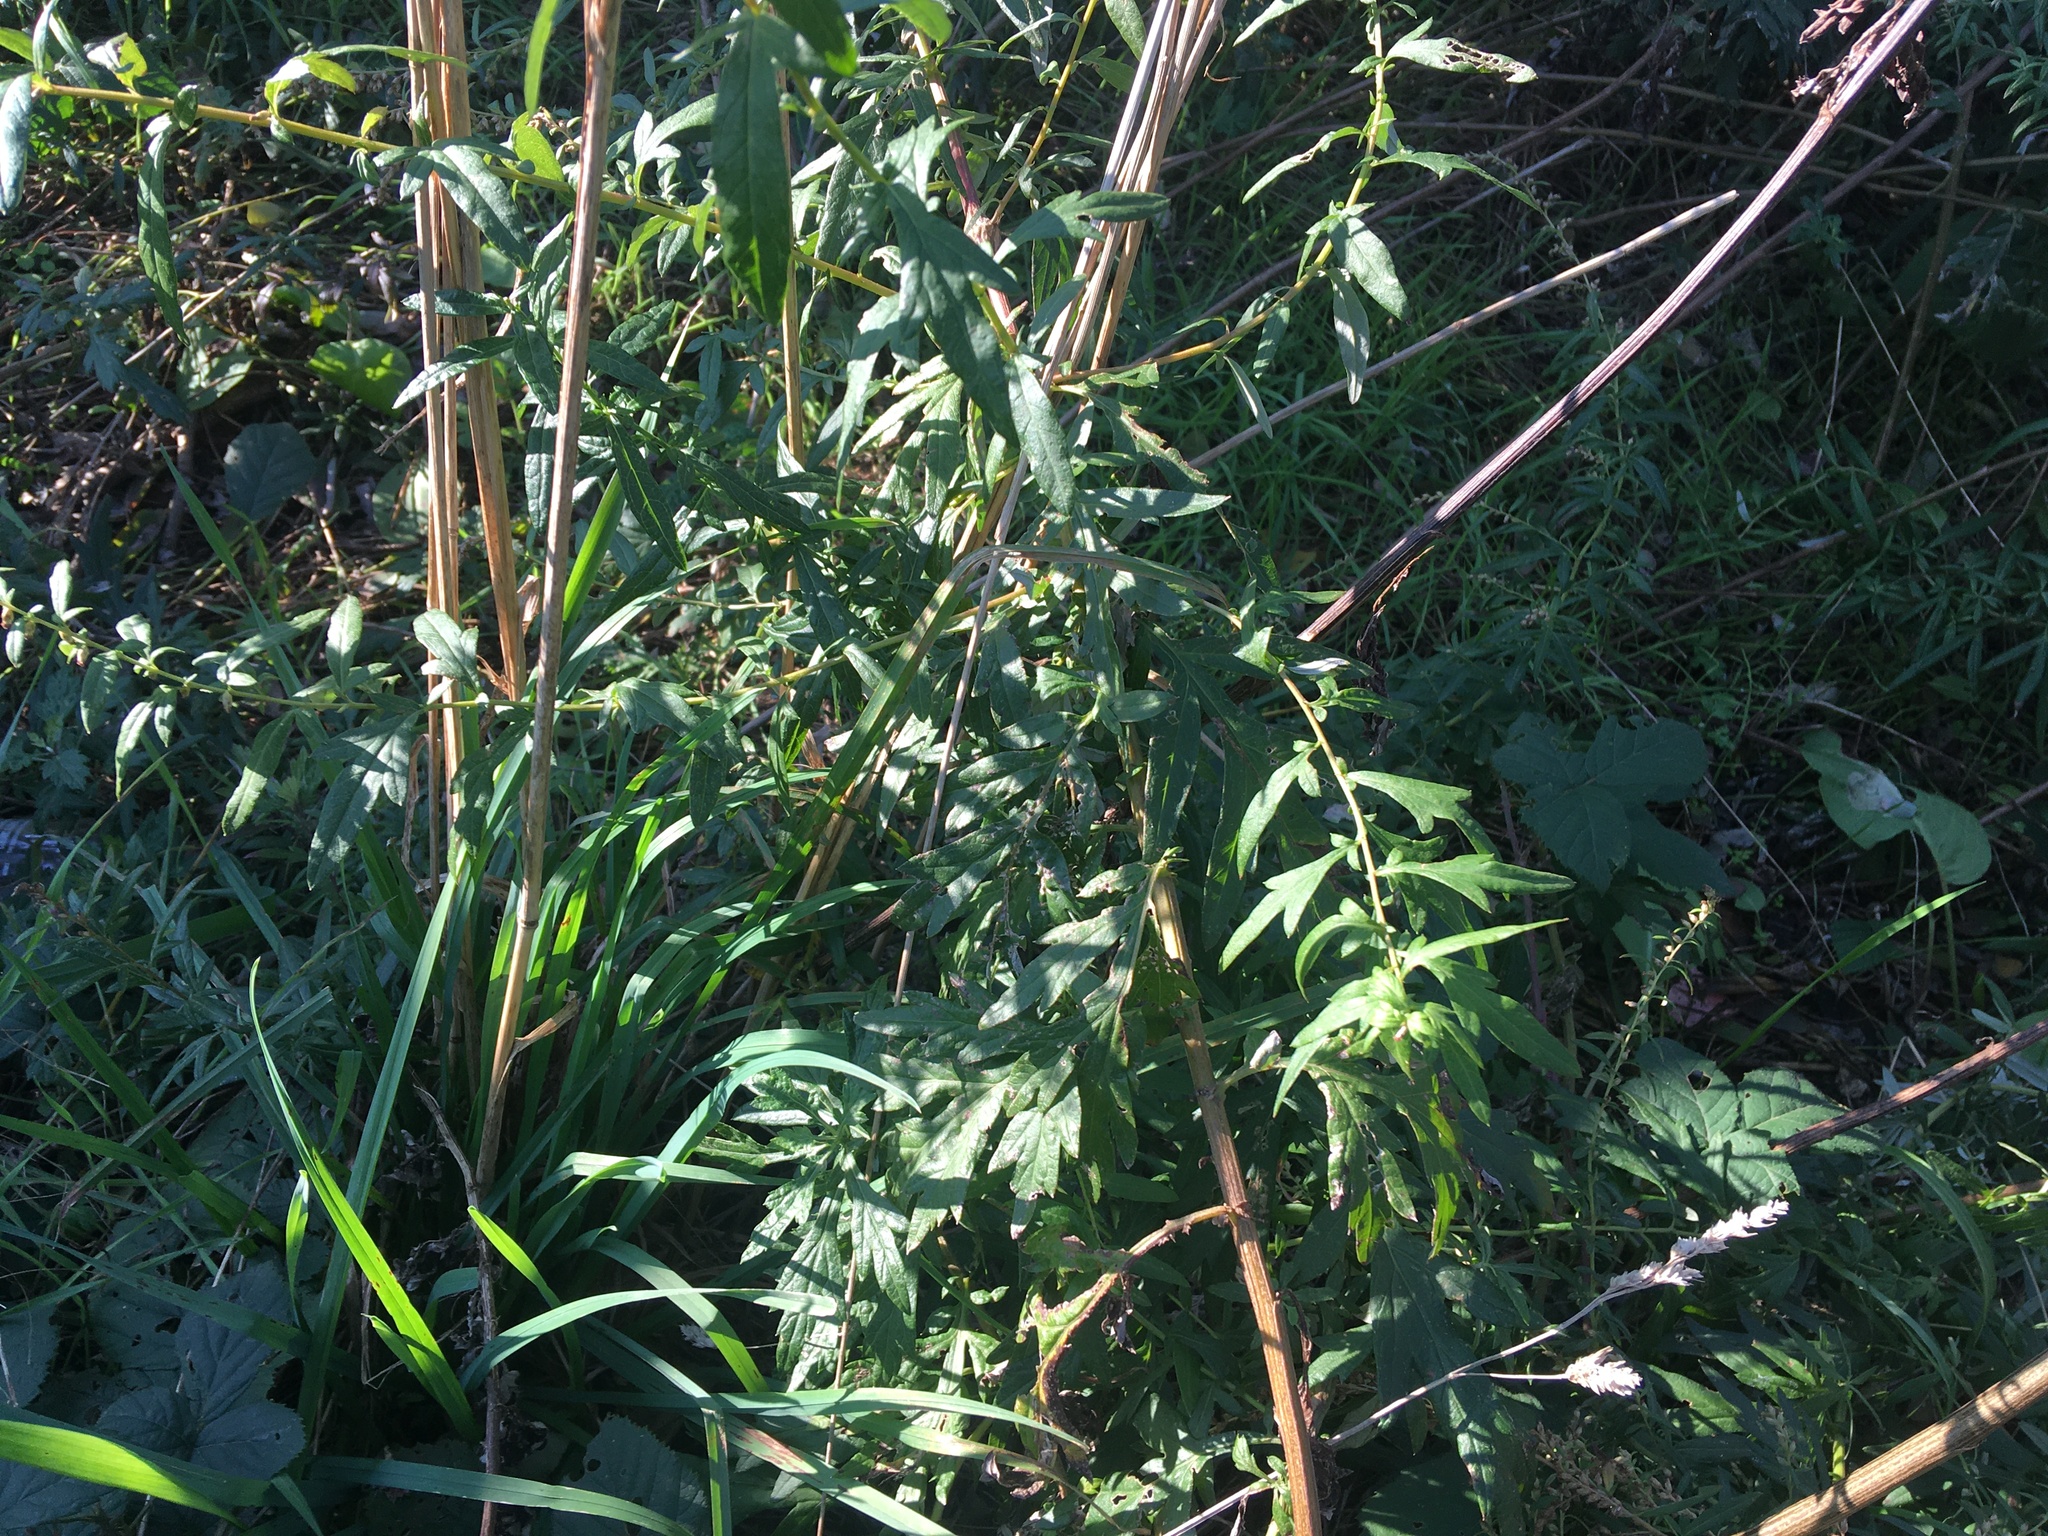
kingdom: Plantae
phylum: Tracheophyta
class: Magnoliopsida
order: Asterales
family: Asteraceae
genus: Artemisia
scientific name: Artemisia vulgaris
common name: Mugwort
